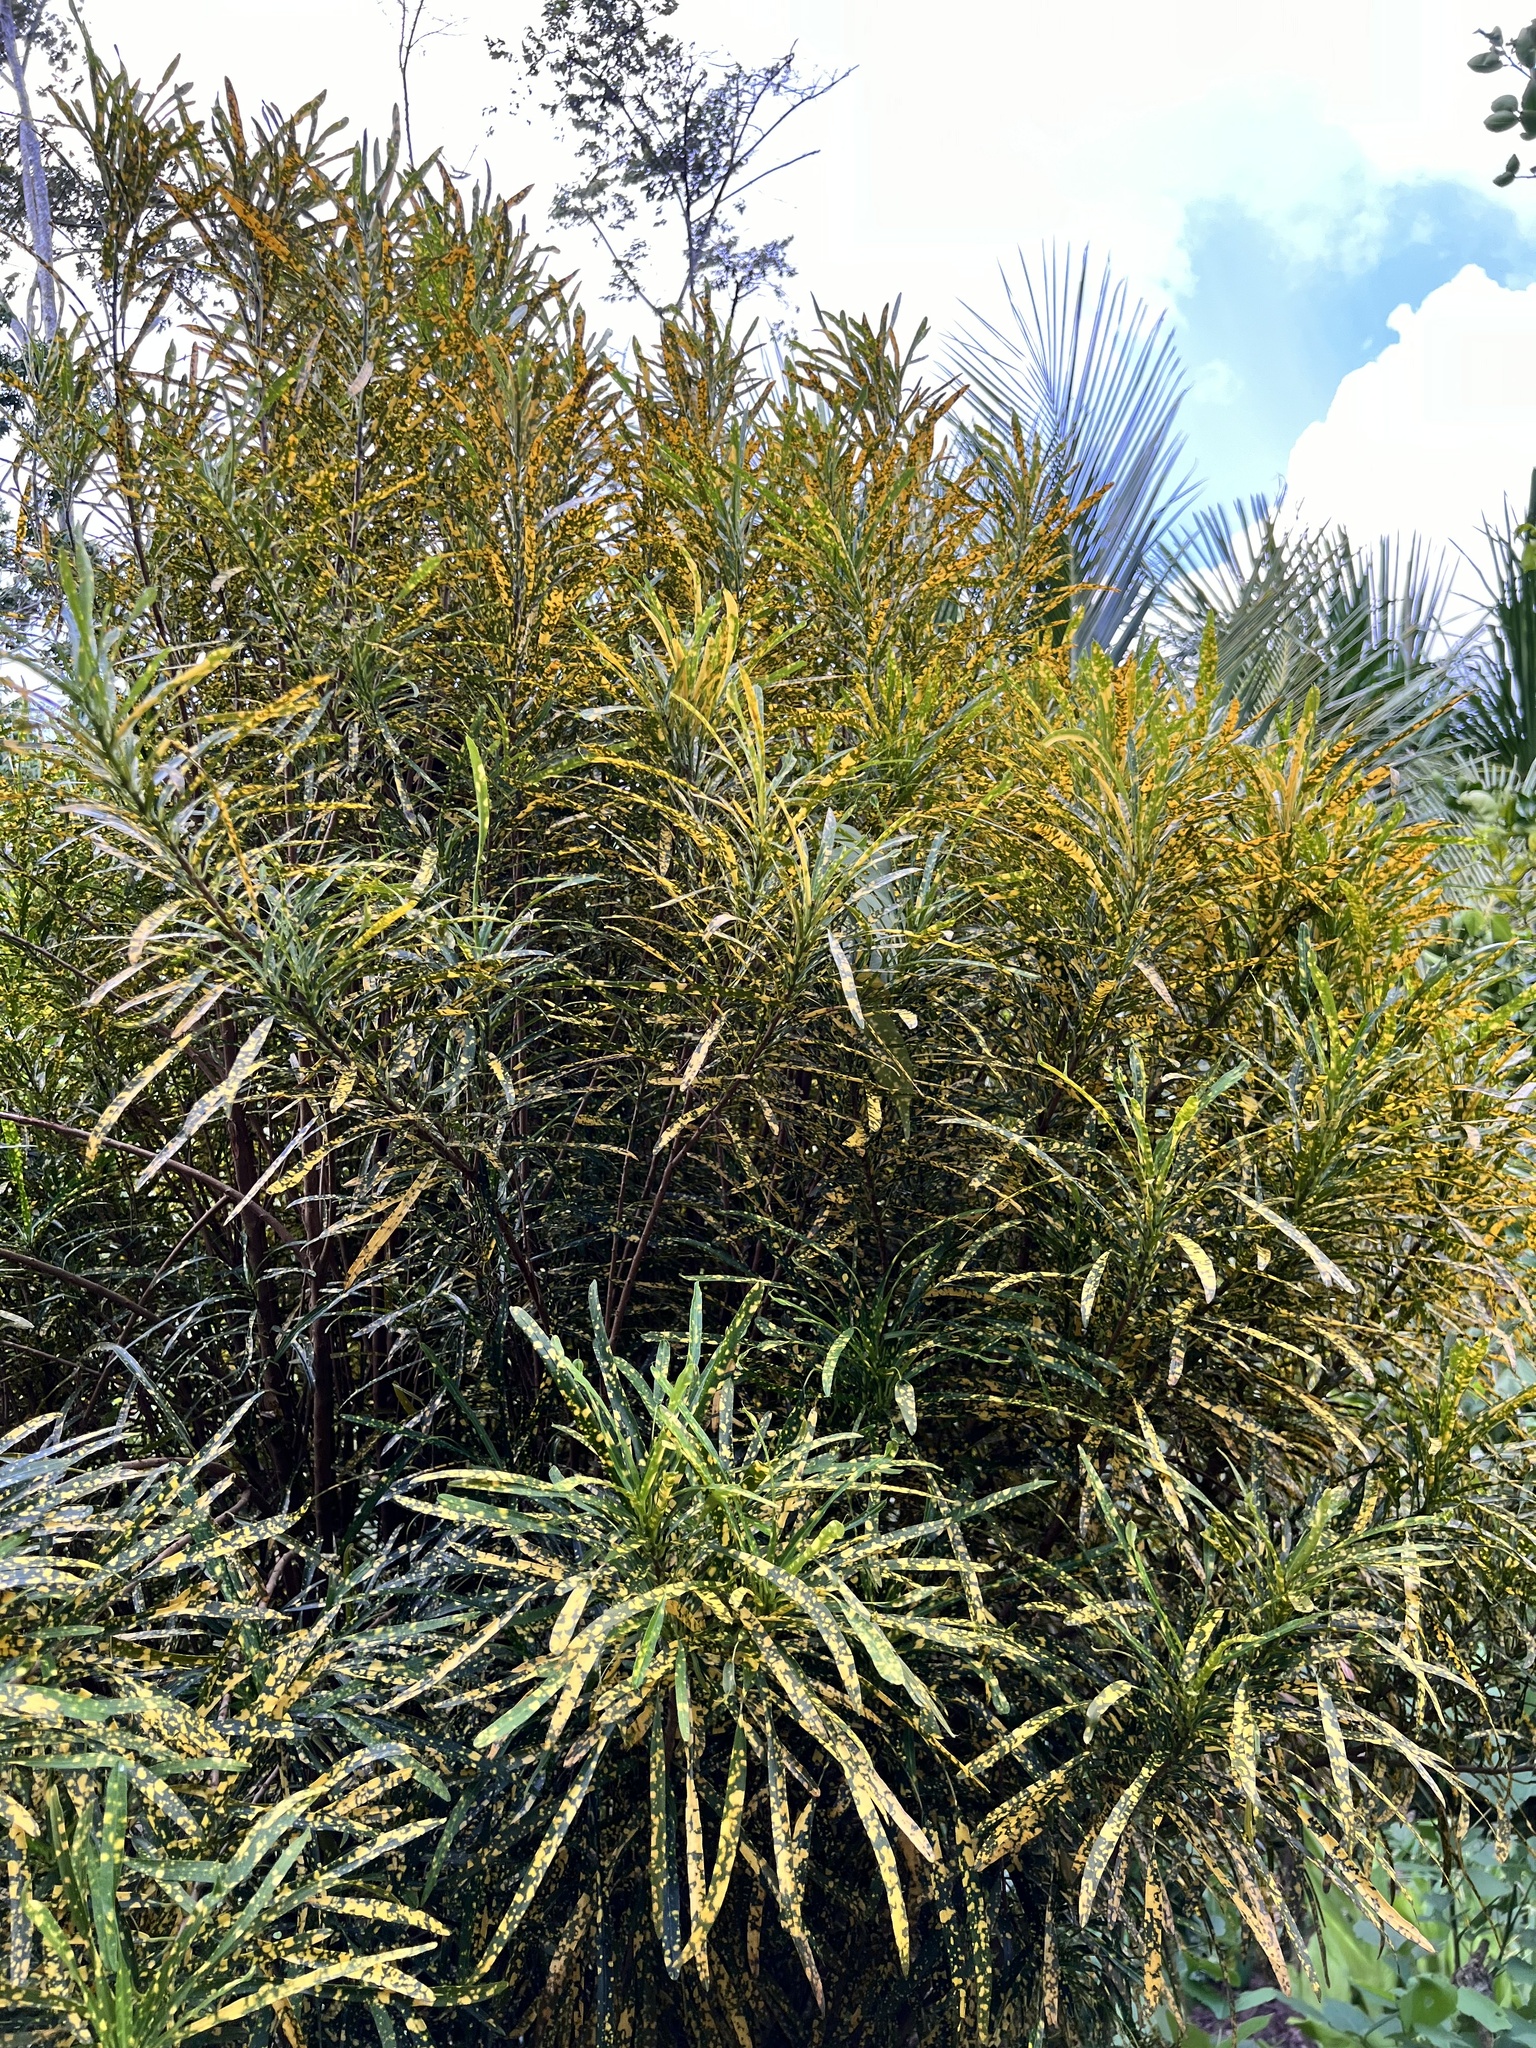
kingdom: Plantae
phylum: Tracheophyta
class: Magnoliopsida
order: Malpighiales
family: Euphorbiaceae
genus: Codiaeum
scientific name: Codiaeum variegatum
